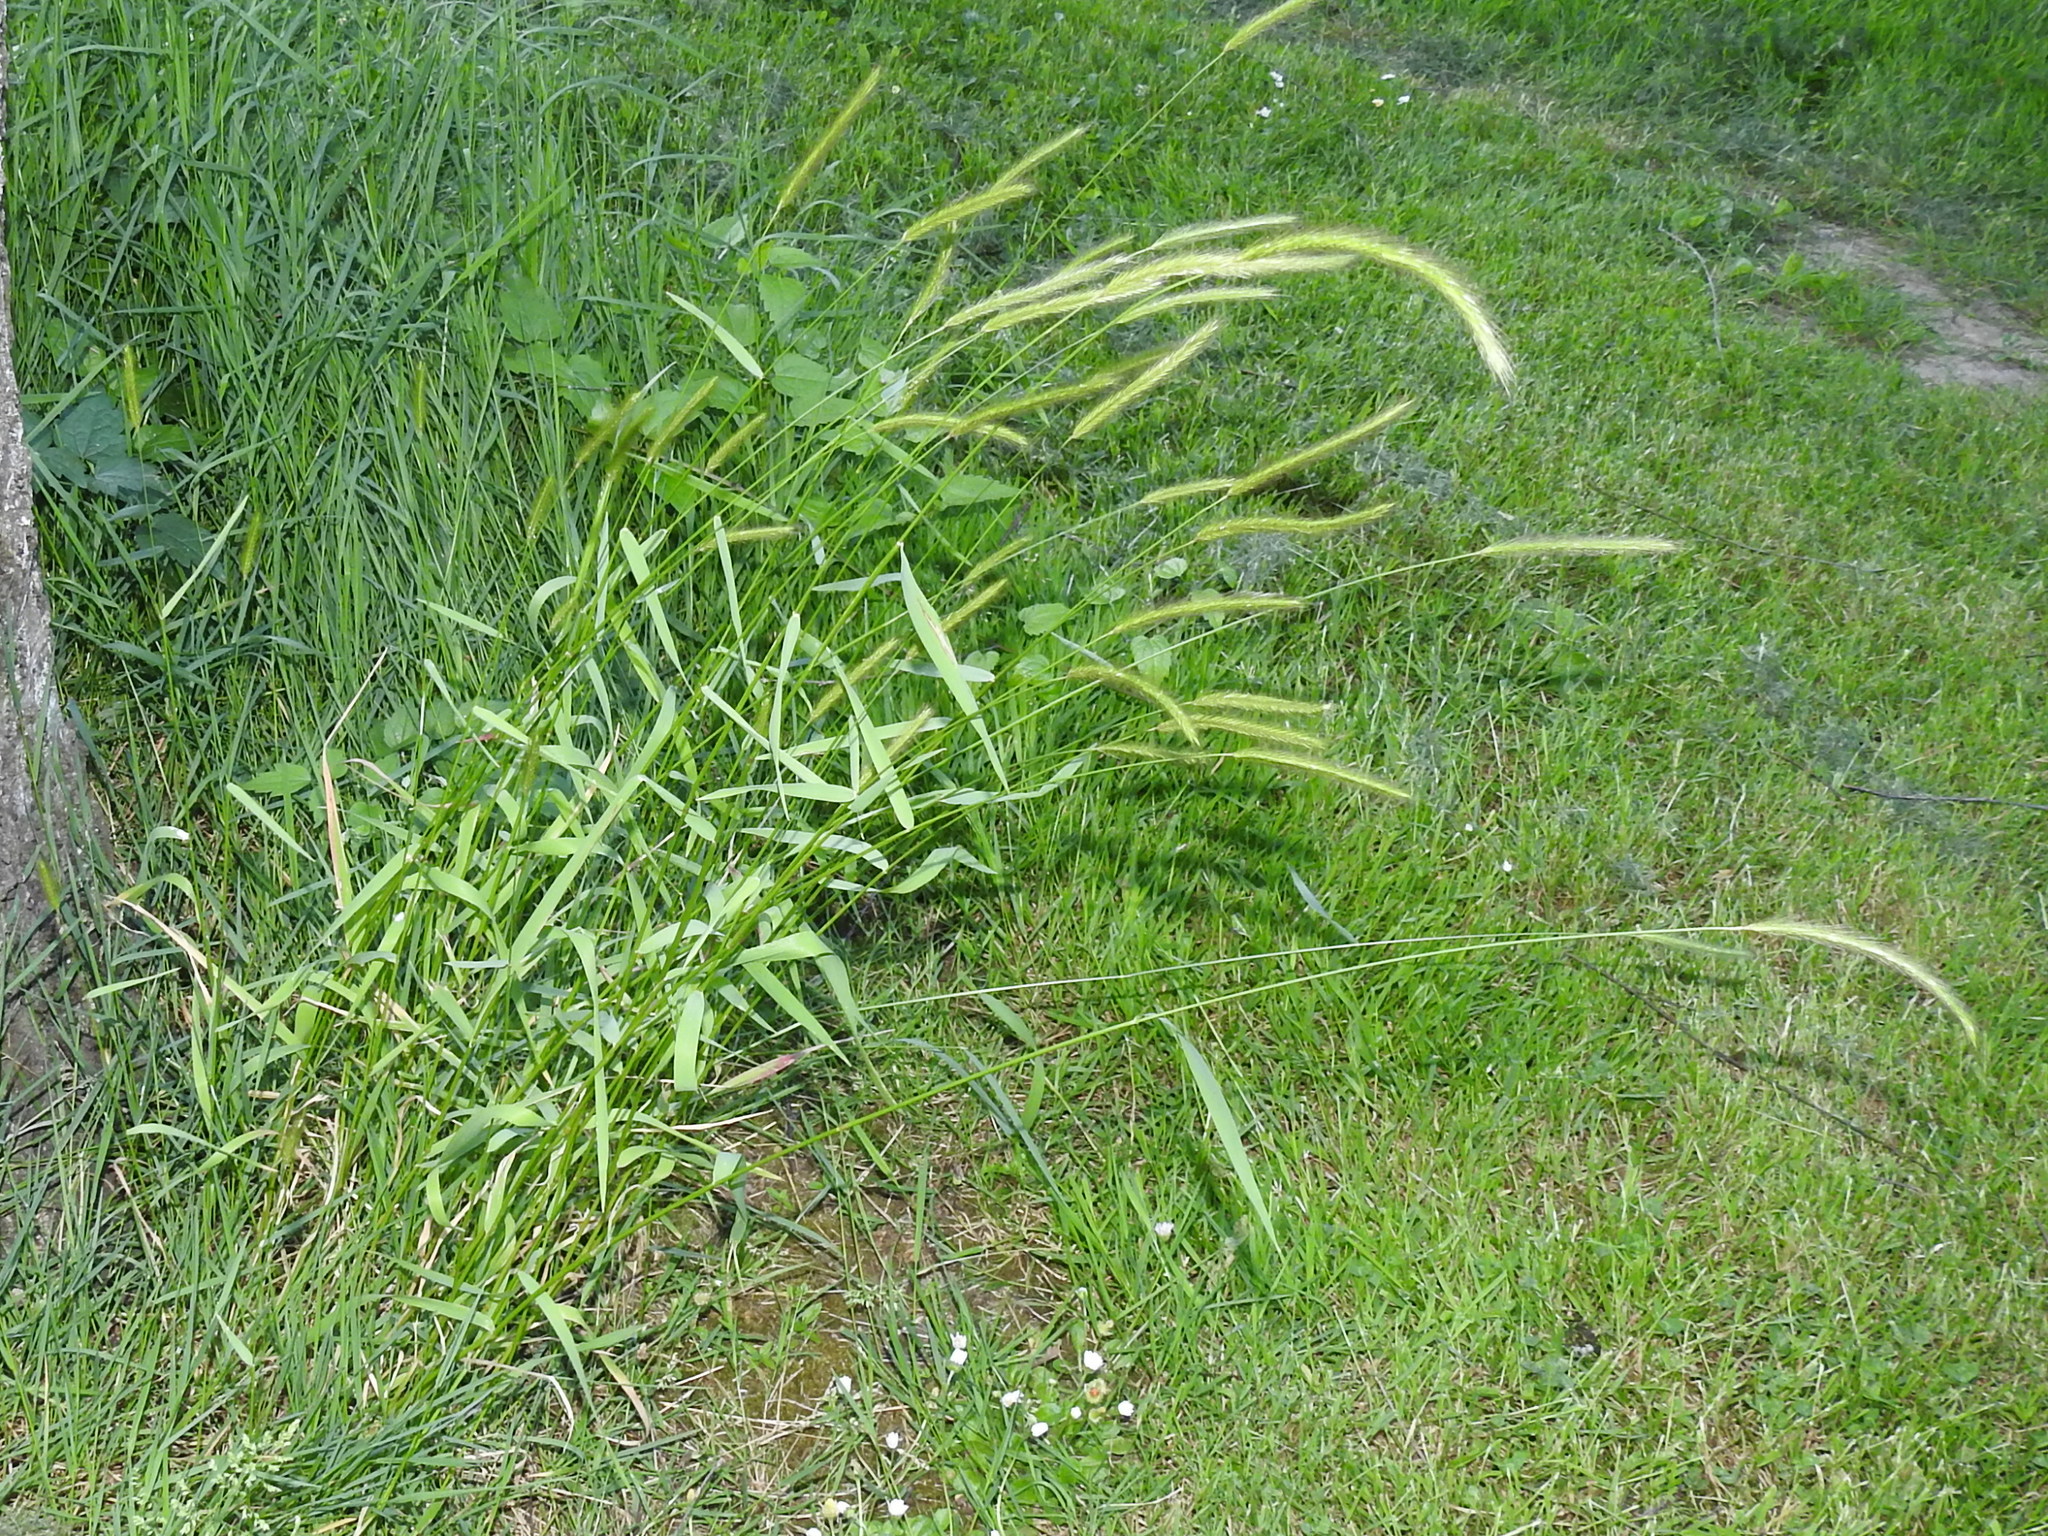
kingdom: Plantae
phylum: Tracheophyta
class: Liliopsida
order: Poales
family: Poaceae
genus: Hordeum
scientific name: Hordeum brachyantherum
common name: Meadow barley
